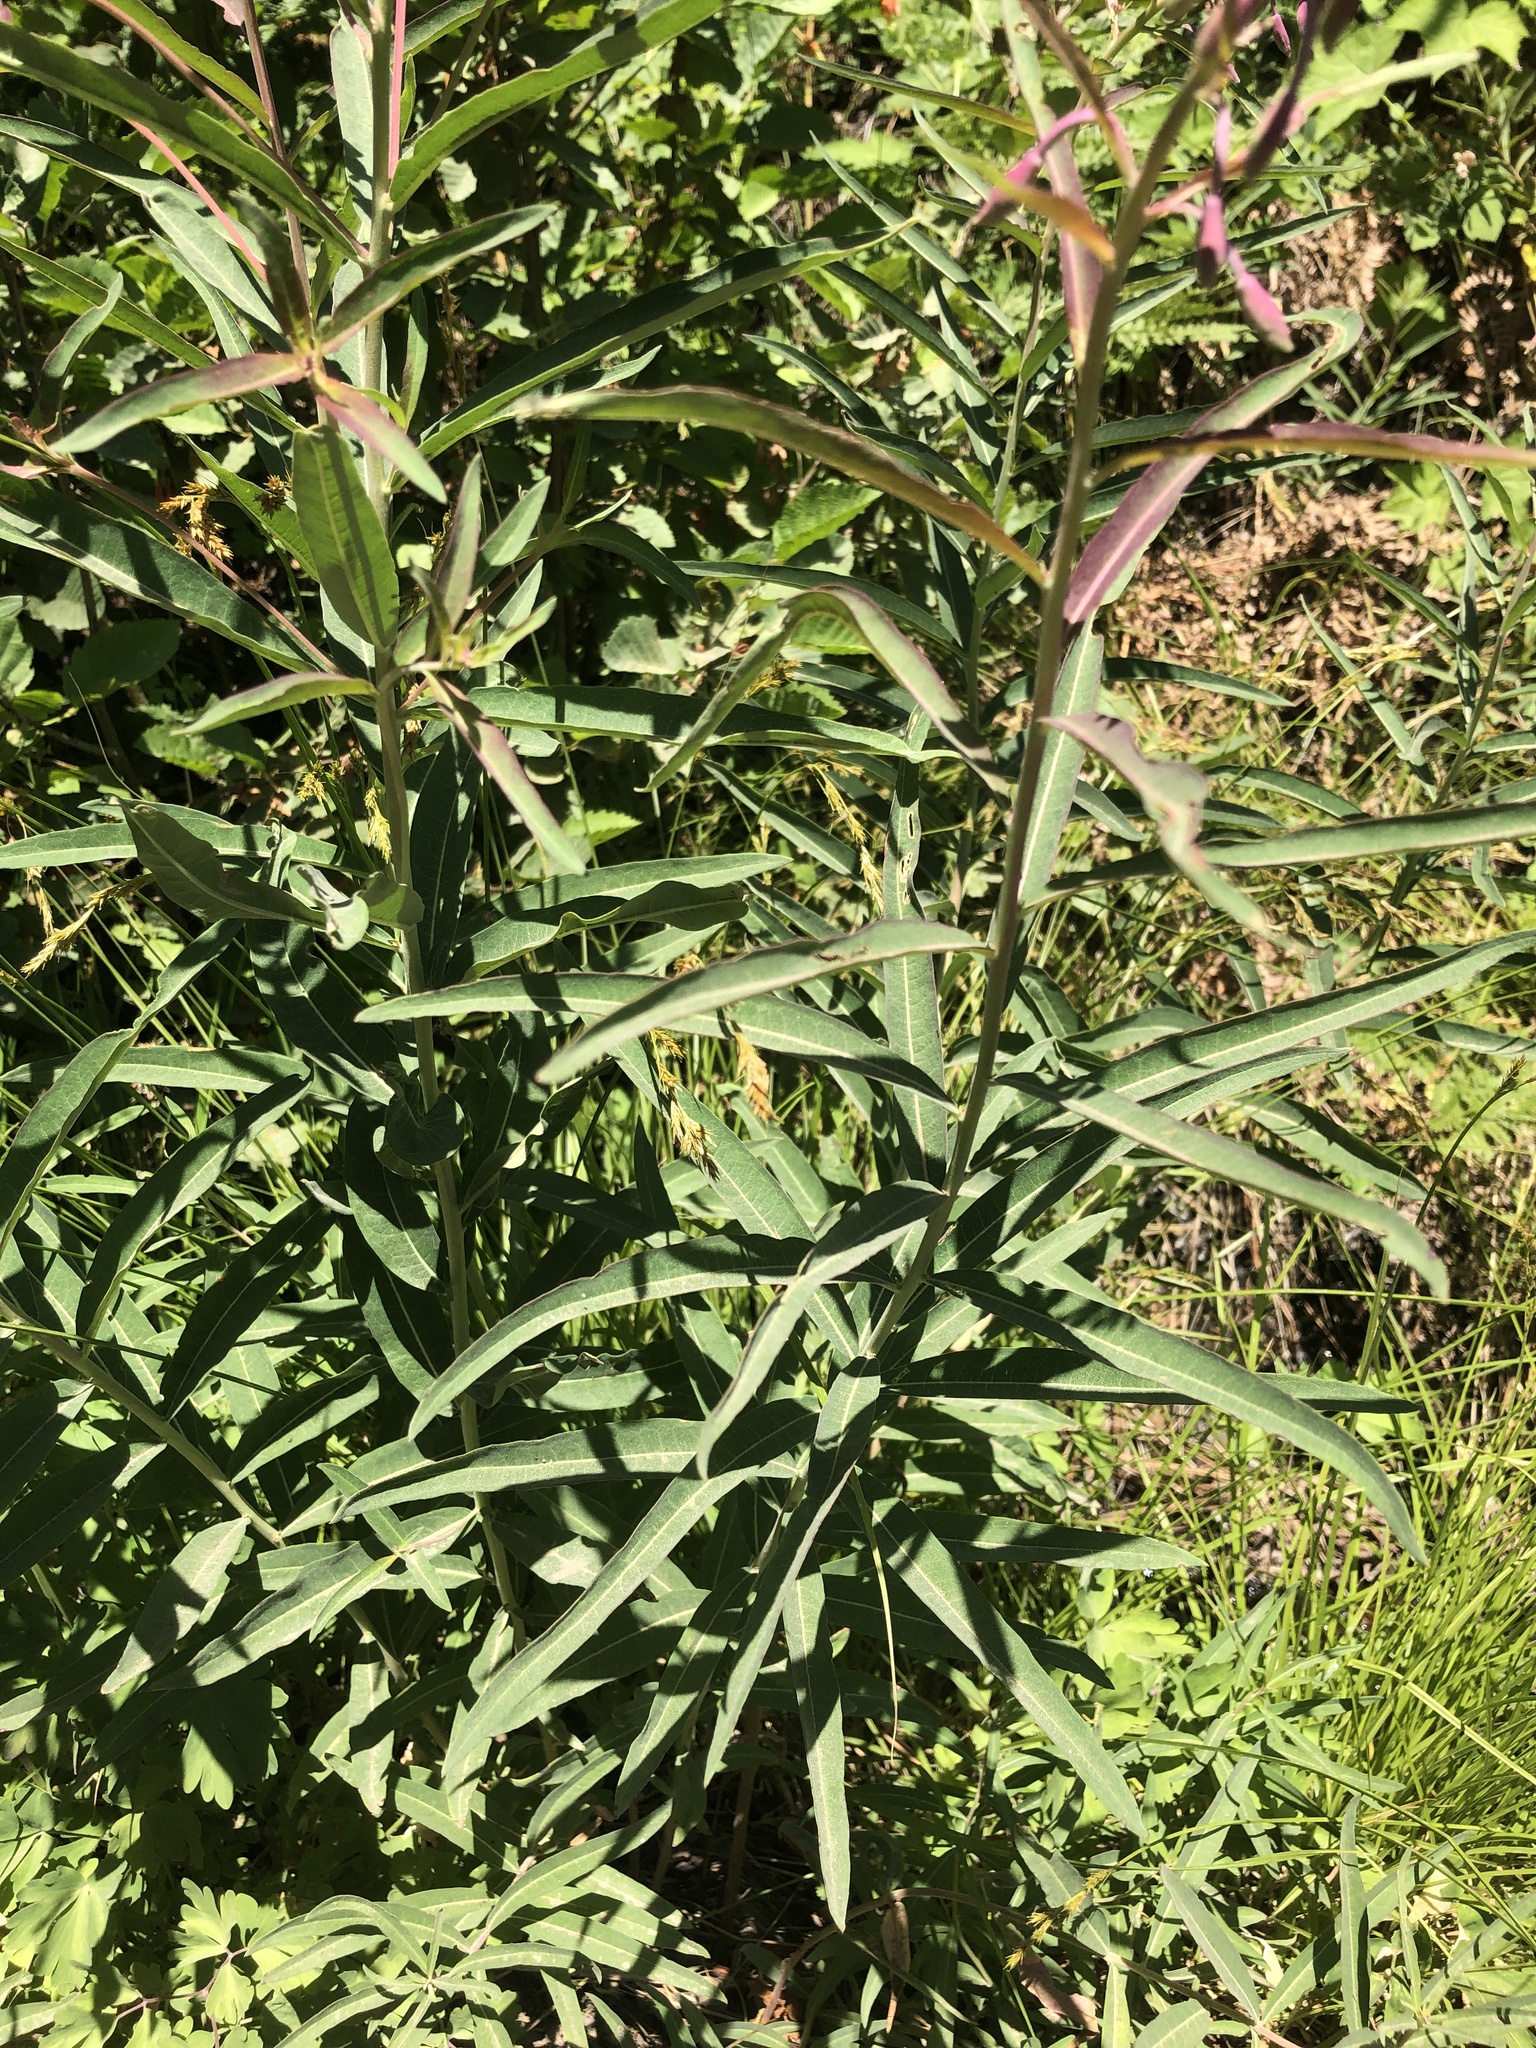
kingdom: Plantae
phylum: Tracheophyta
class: Magnoliopsida
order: Myrtales
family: Onagraceae
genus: Chamaenerion
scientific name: Chamaenerion angustifolium
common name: Fireweed
